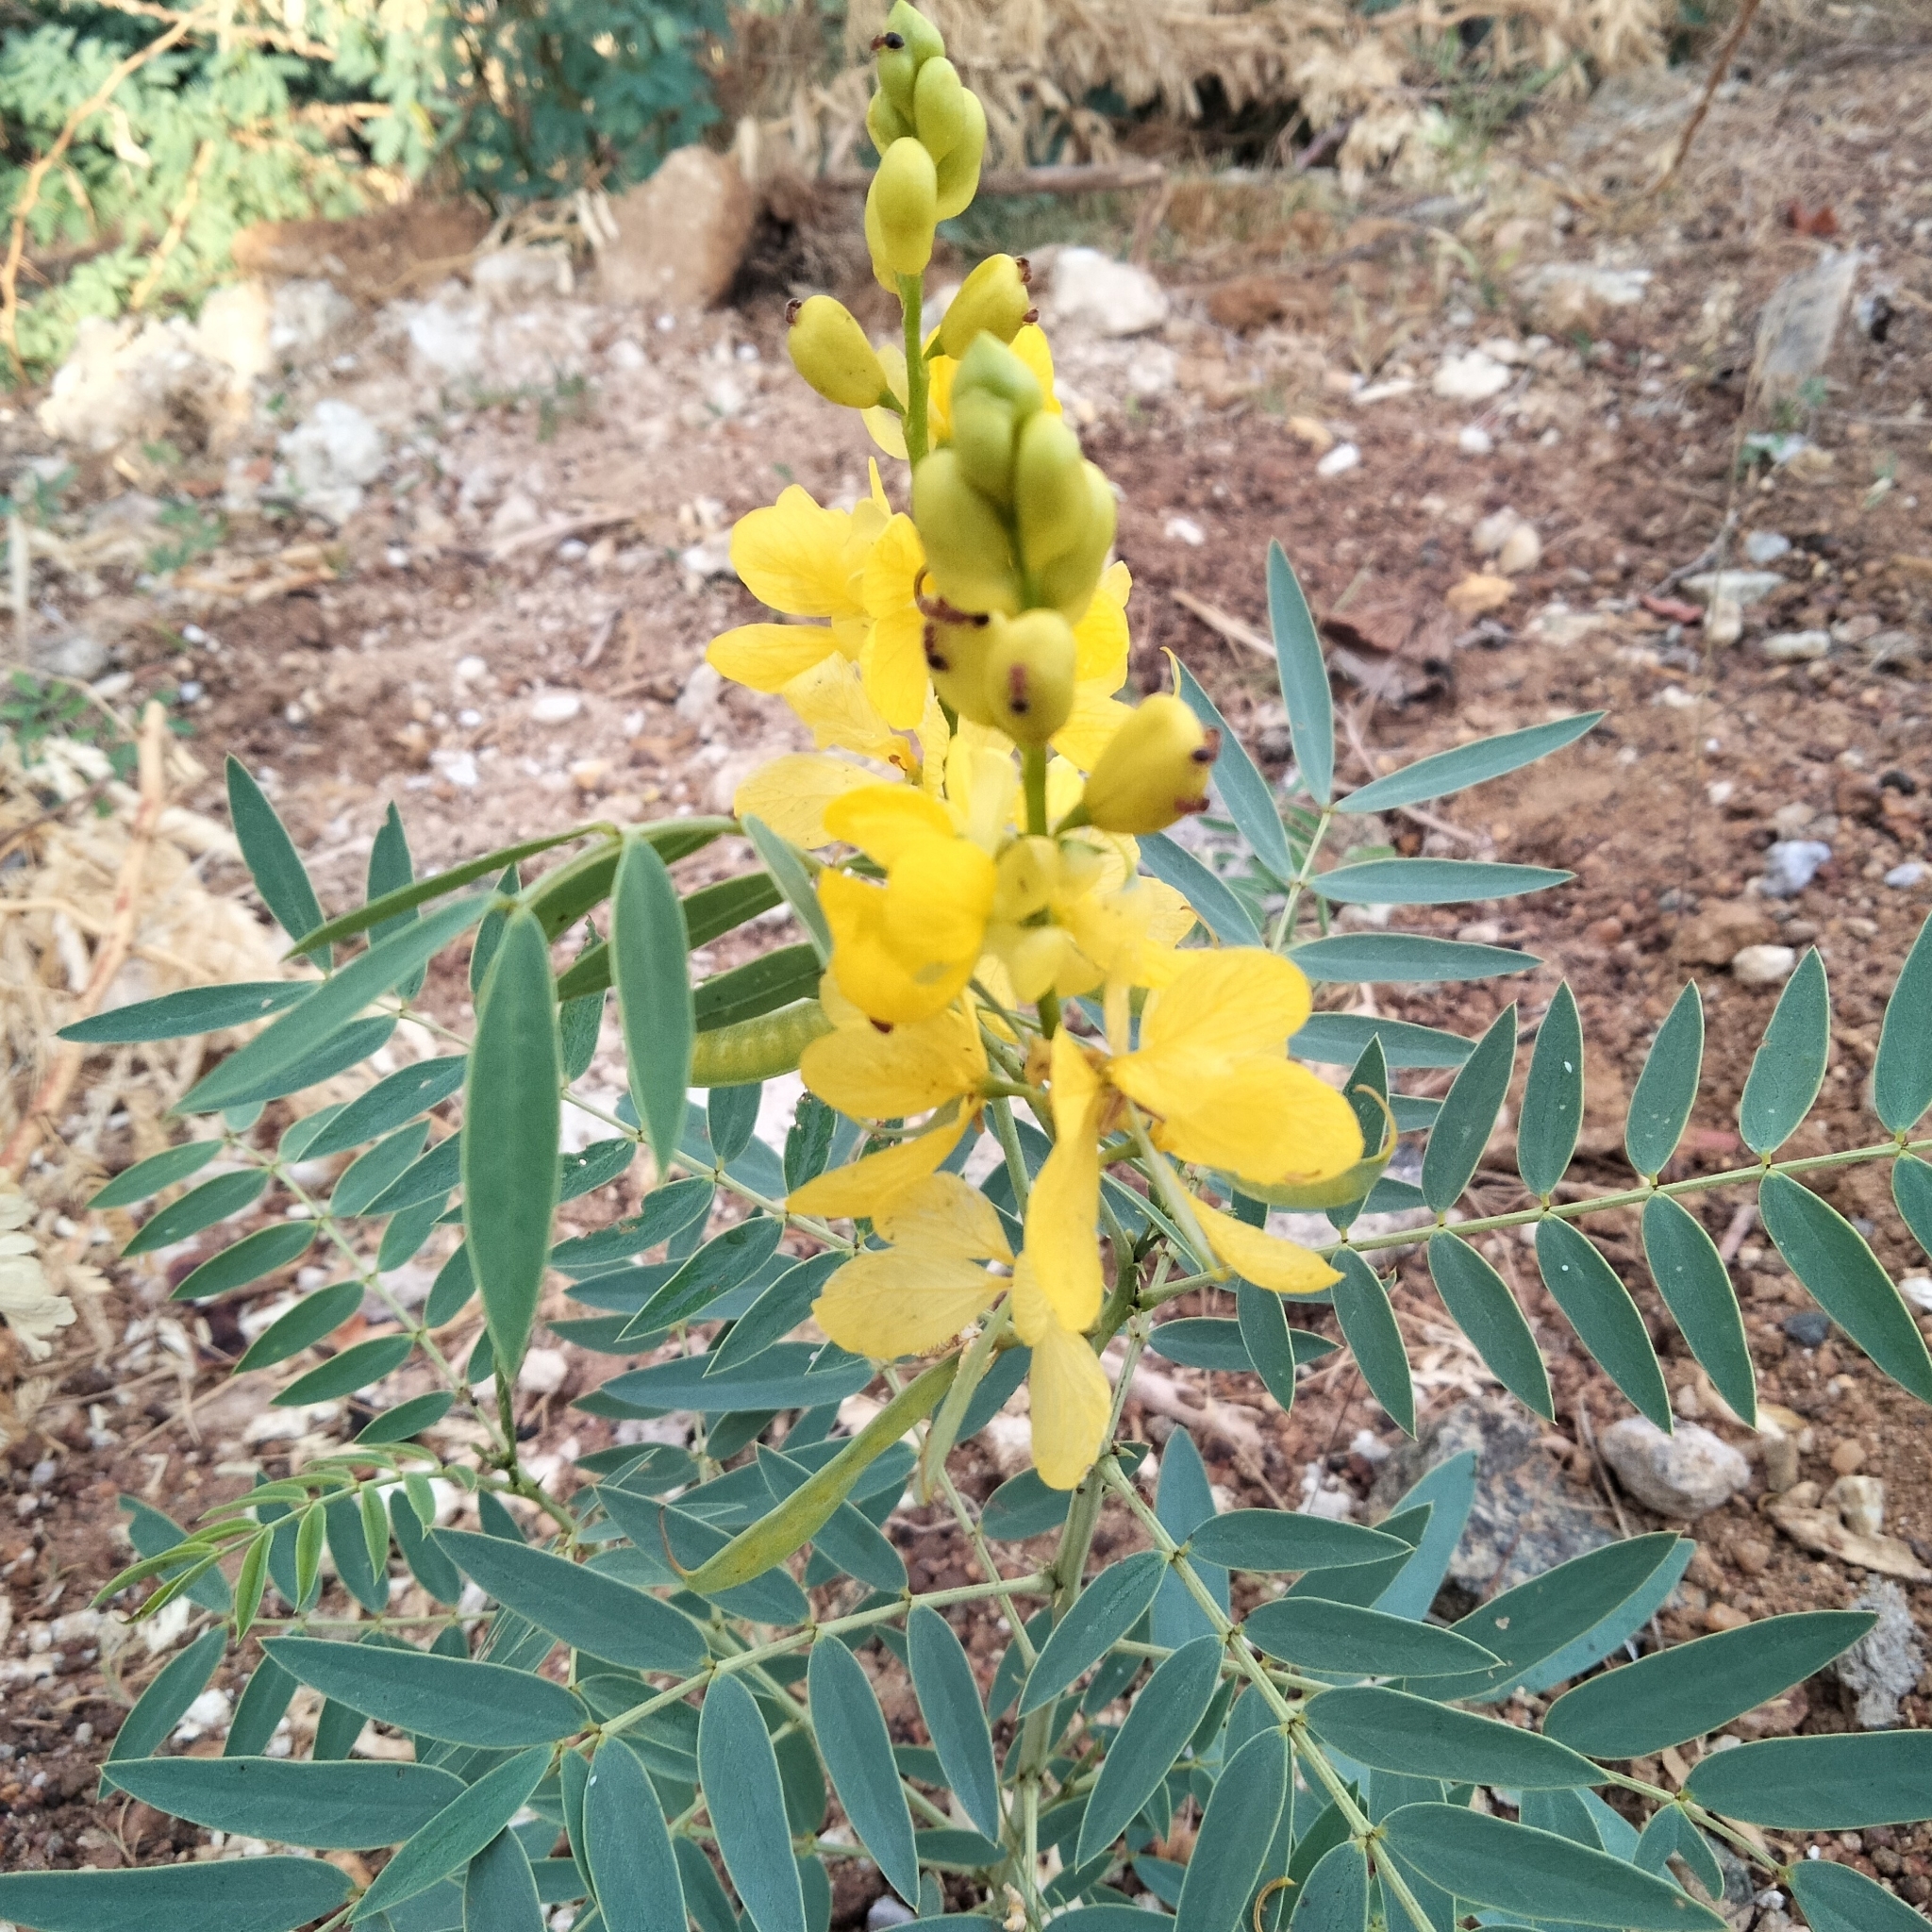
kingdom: Plantae
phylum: Tracheophyta
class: Magnoliopsida
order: Fabales
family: Fabaceae
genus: Senna
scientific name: Senna alexandrina
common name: True senna
